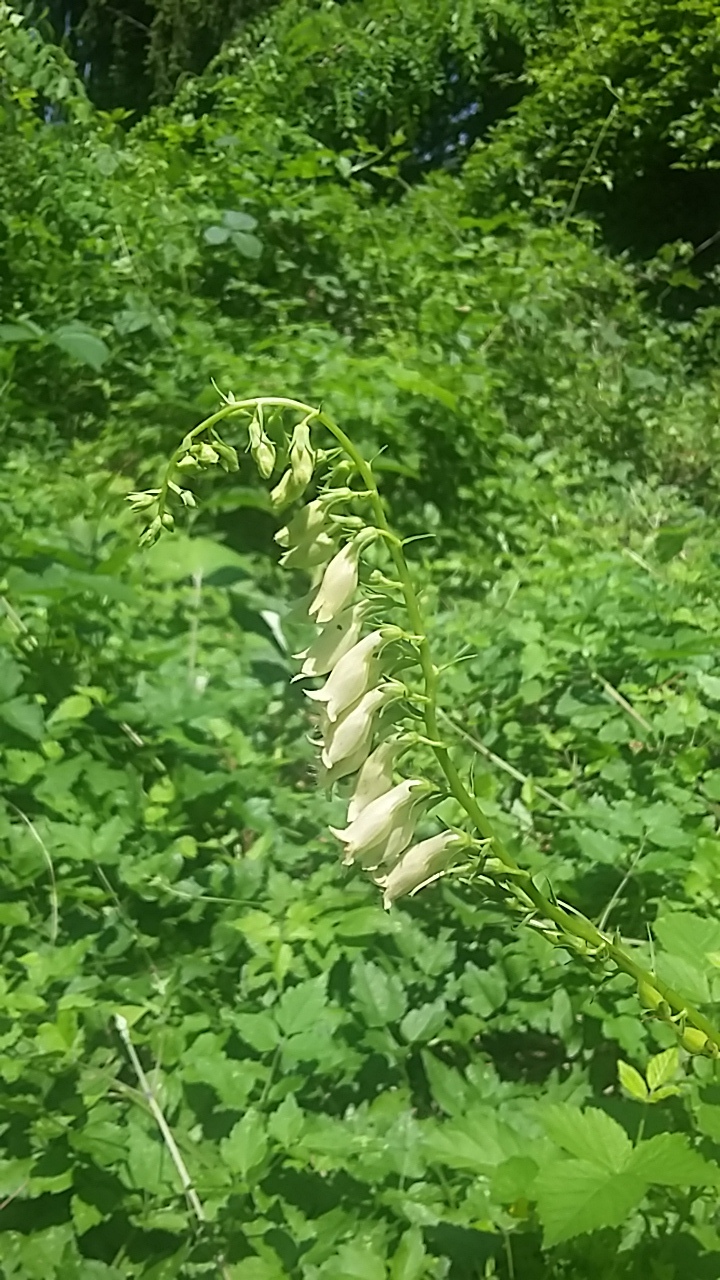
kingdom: Plantae
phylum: Tracheophyta
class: Magnoliopsida
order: Lamiales
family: Plantaginaceae
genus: Digitalis
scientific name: Digitalis lutea
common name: Straw foxglove
